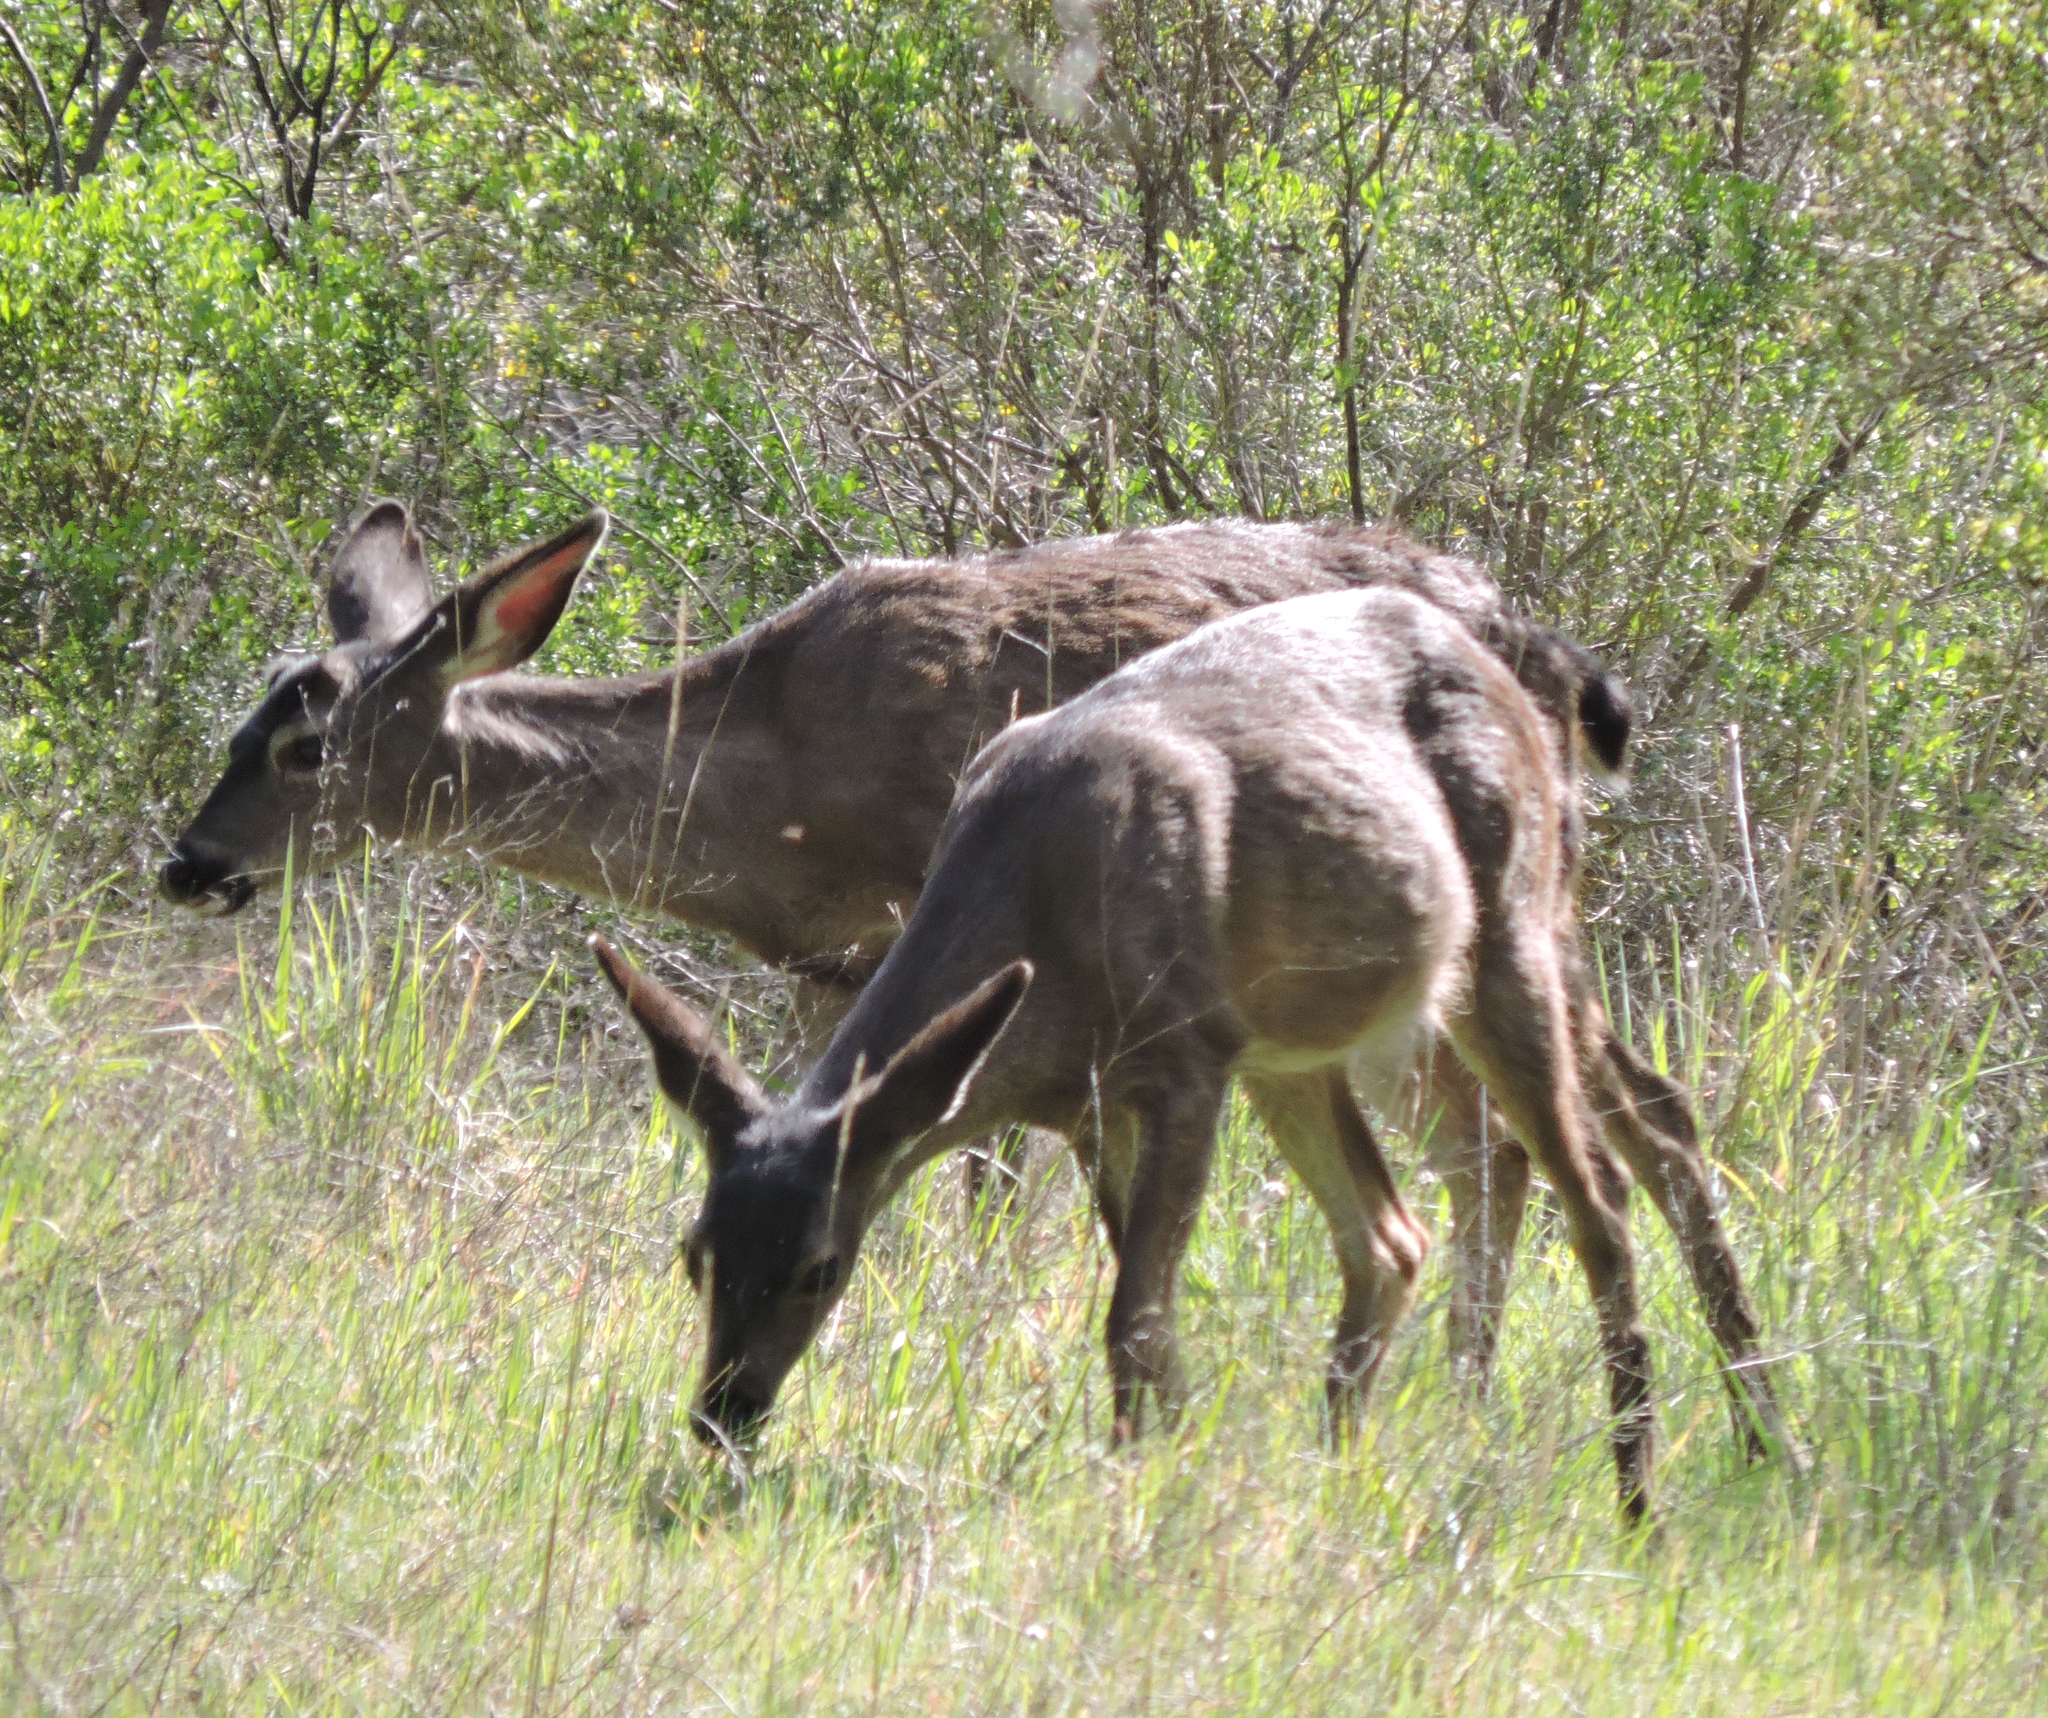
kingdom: Animalia
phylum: Chordata
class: Mammalia
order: Artiodactyla
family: Cervidae
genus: Odocoileus
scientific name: Odocoileus hemionus
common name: Mule deer
